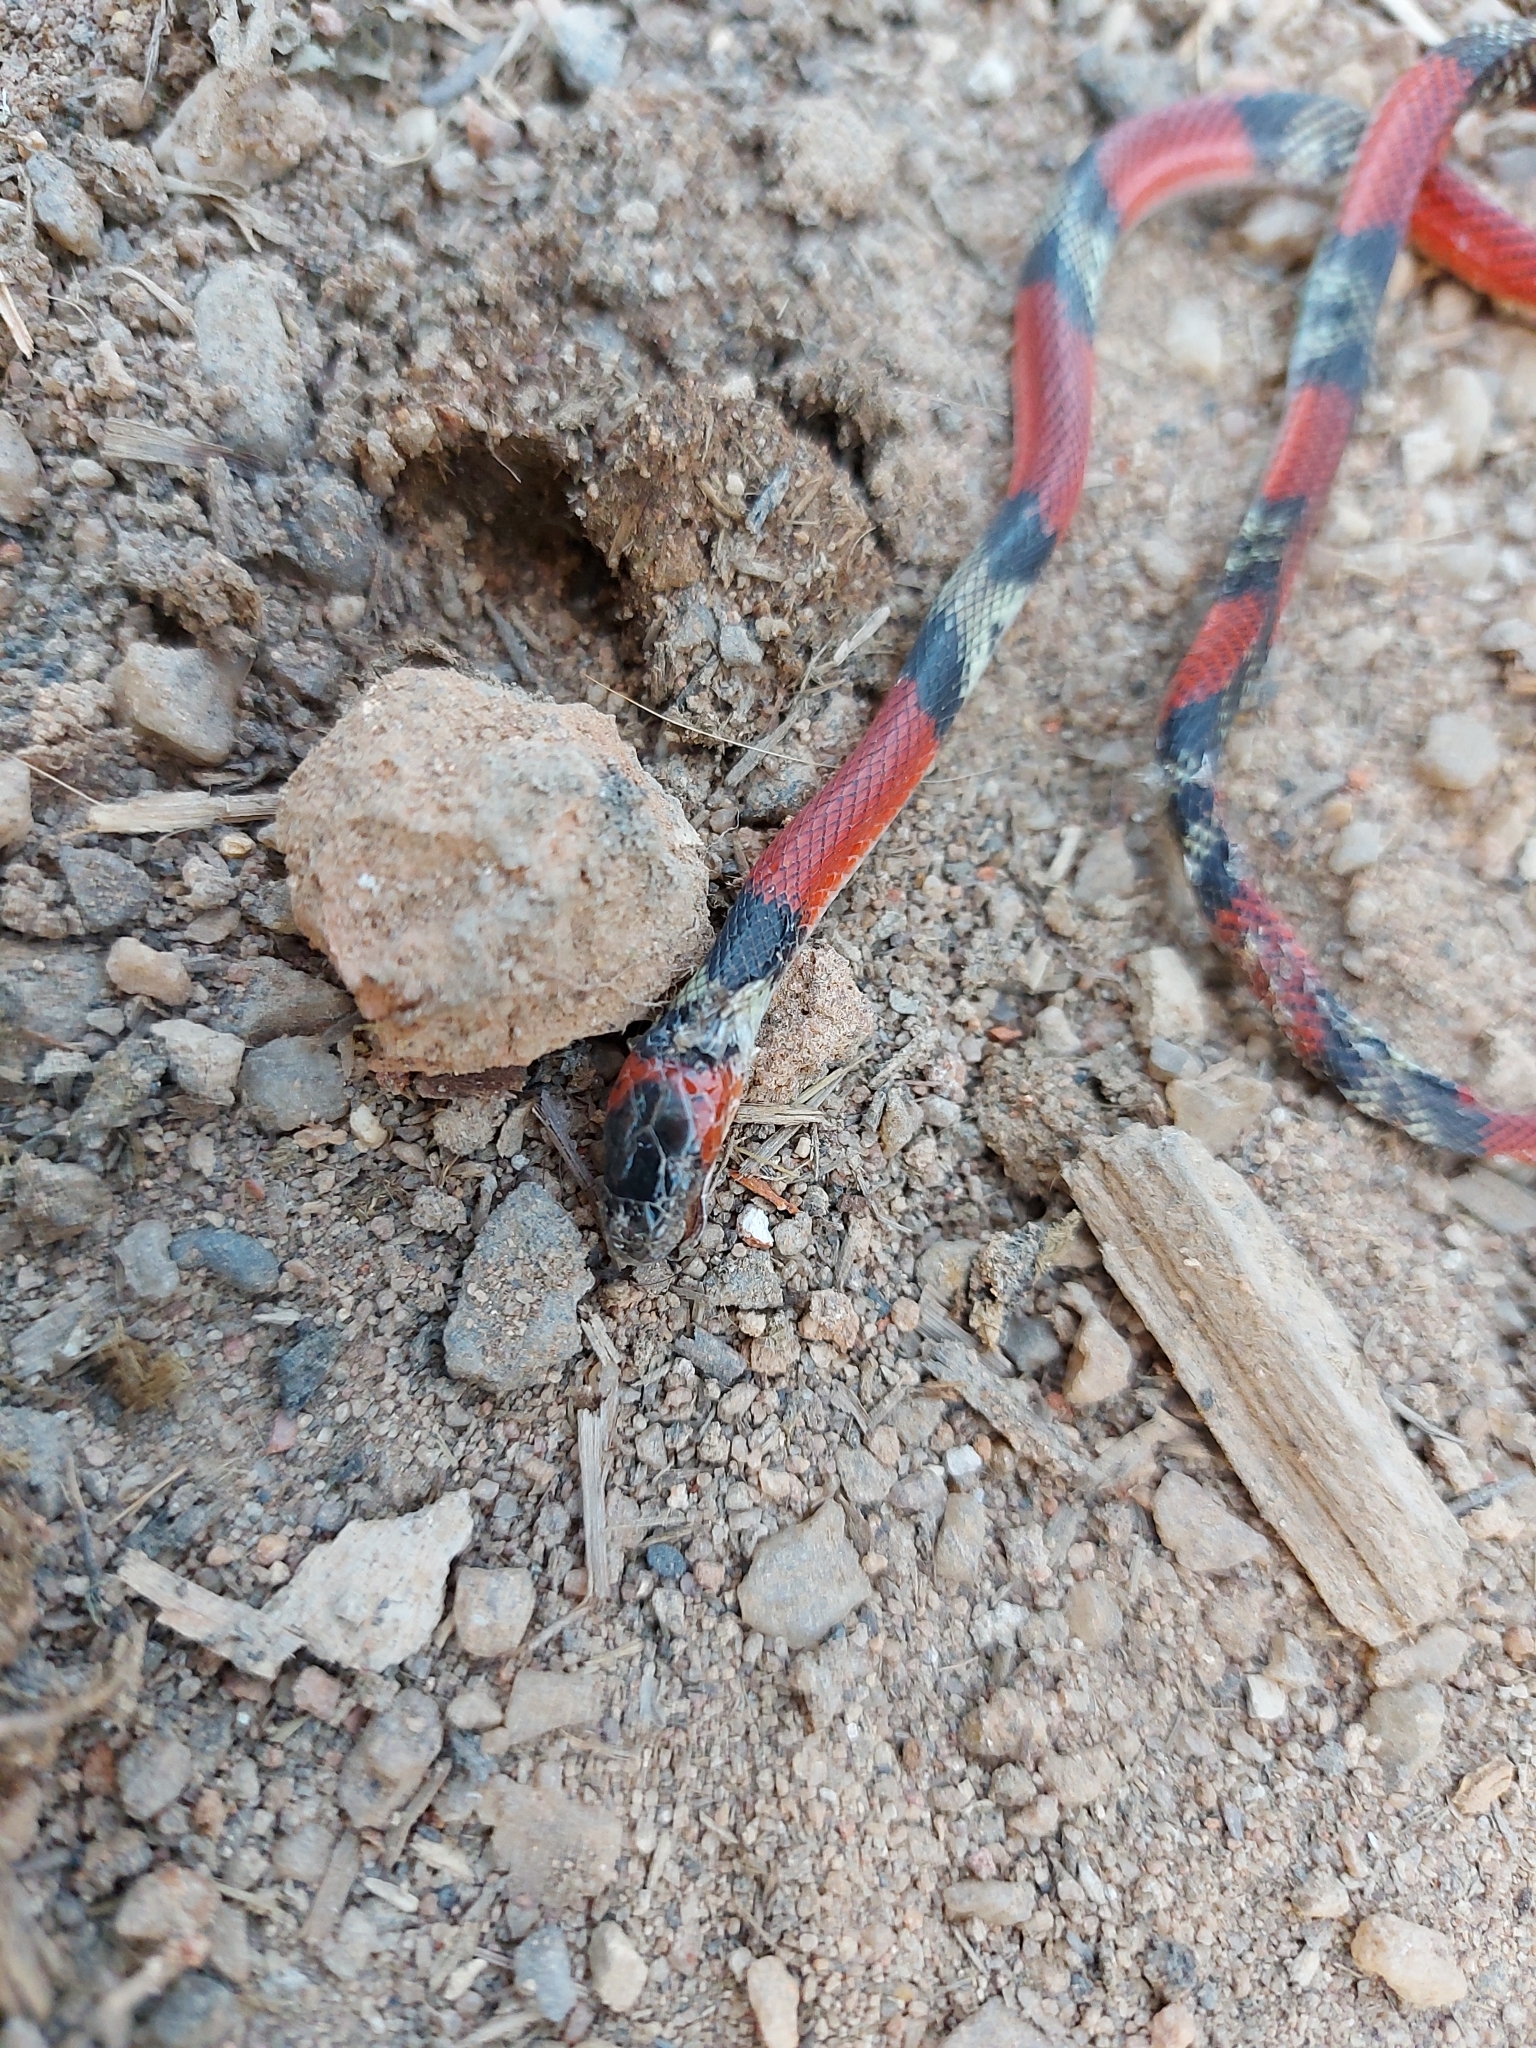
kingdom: Animalia
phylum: Chordata
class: Squamata
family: Colubridae
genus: Oxyrhopus
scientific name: Oxyrhopus guibei
